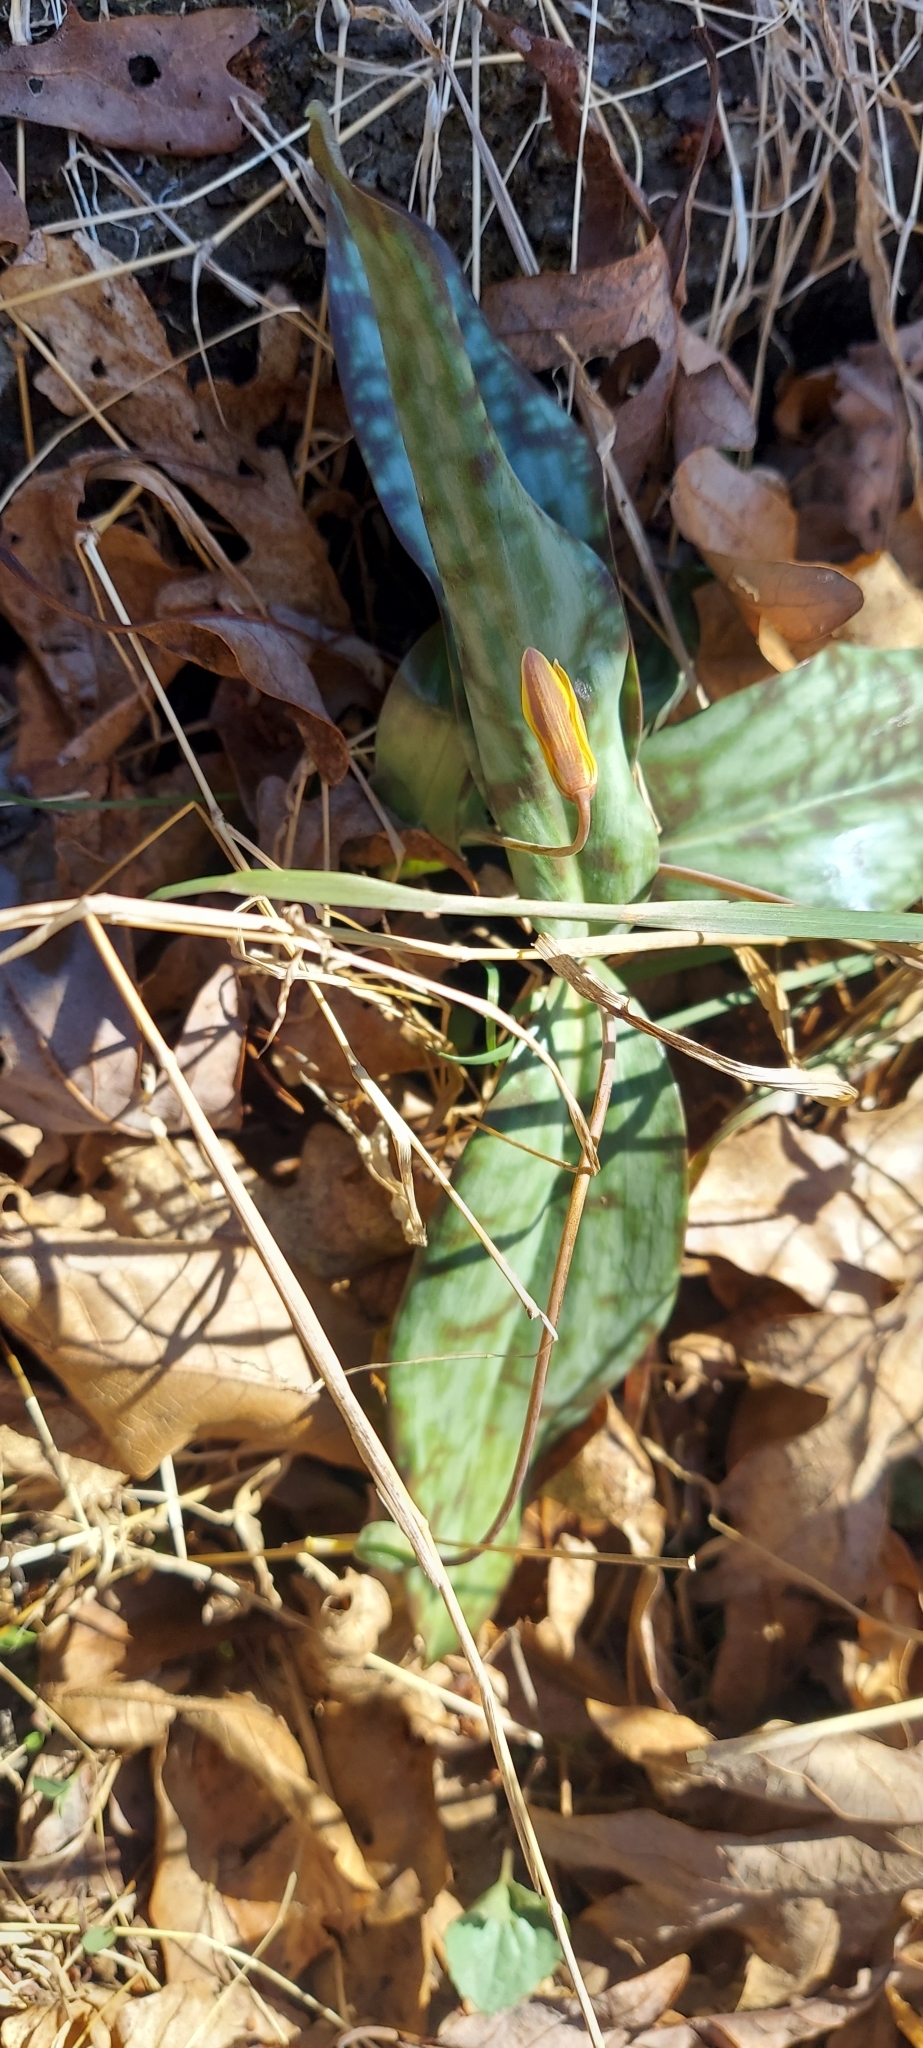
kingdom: Plantae
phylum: Tracheophyta
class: Liliopsida
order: Liliales
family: Liliaceae
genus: Erythronium
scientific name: Erythronium americanum
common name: Yellow adder's-tongue
